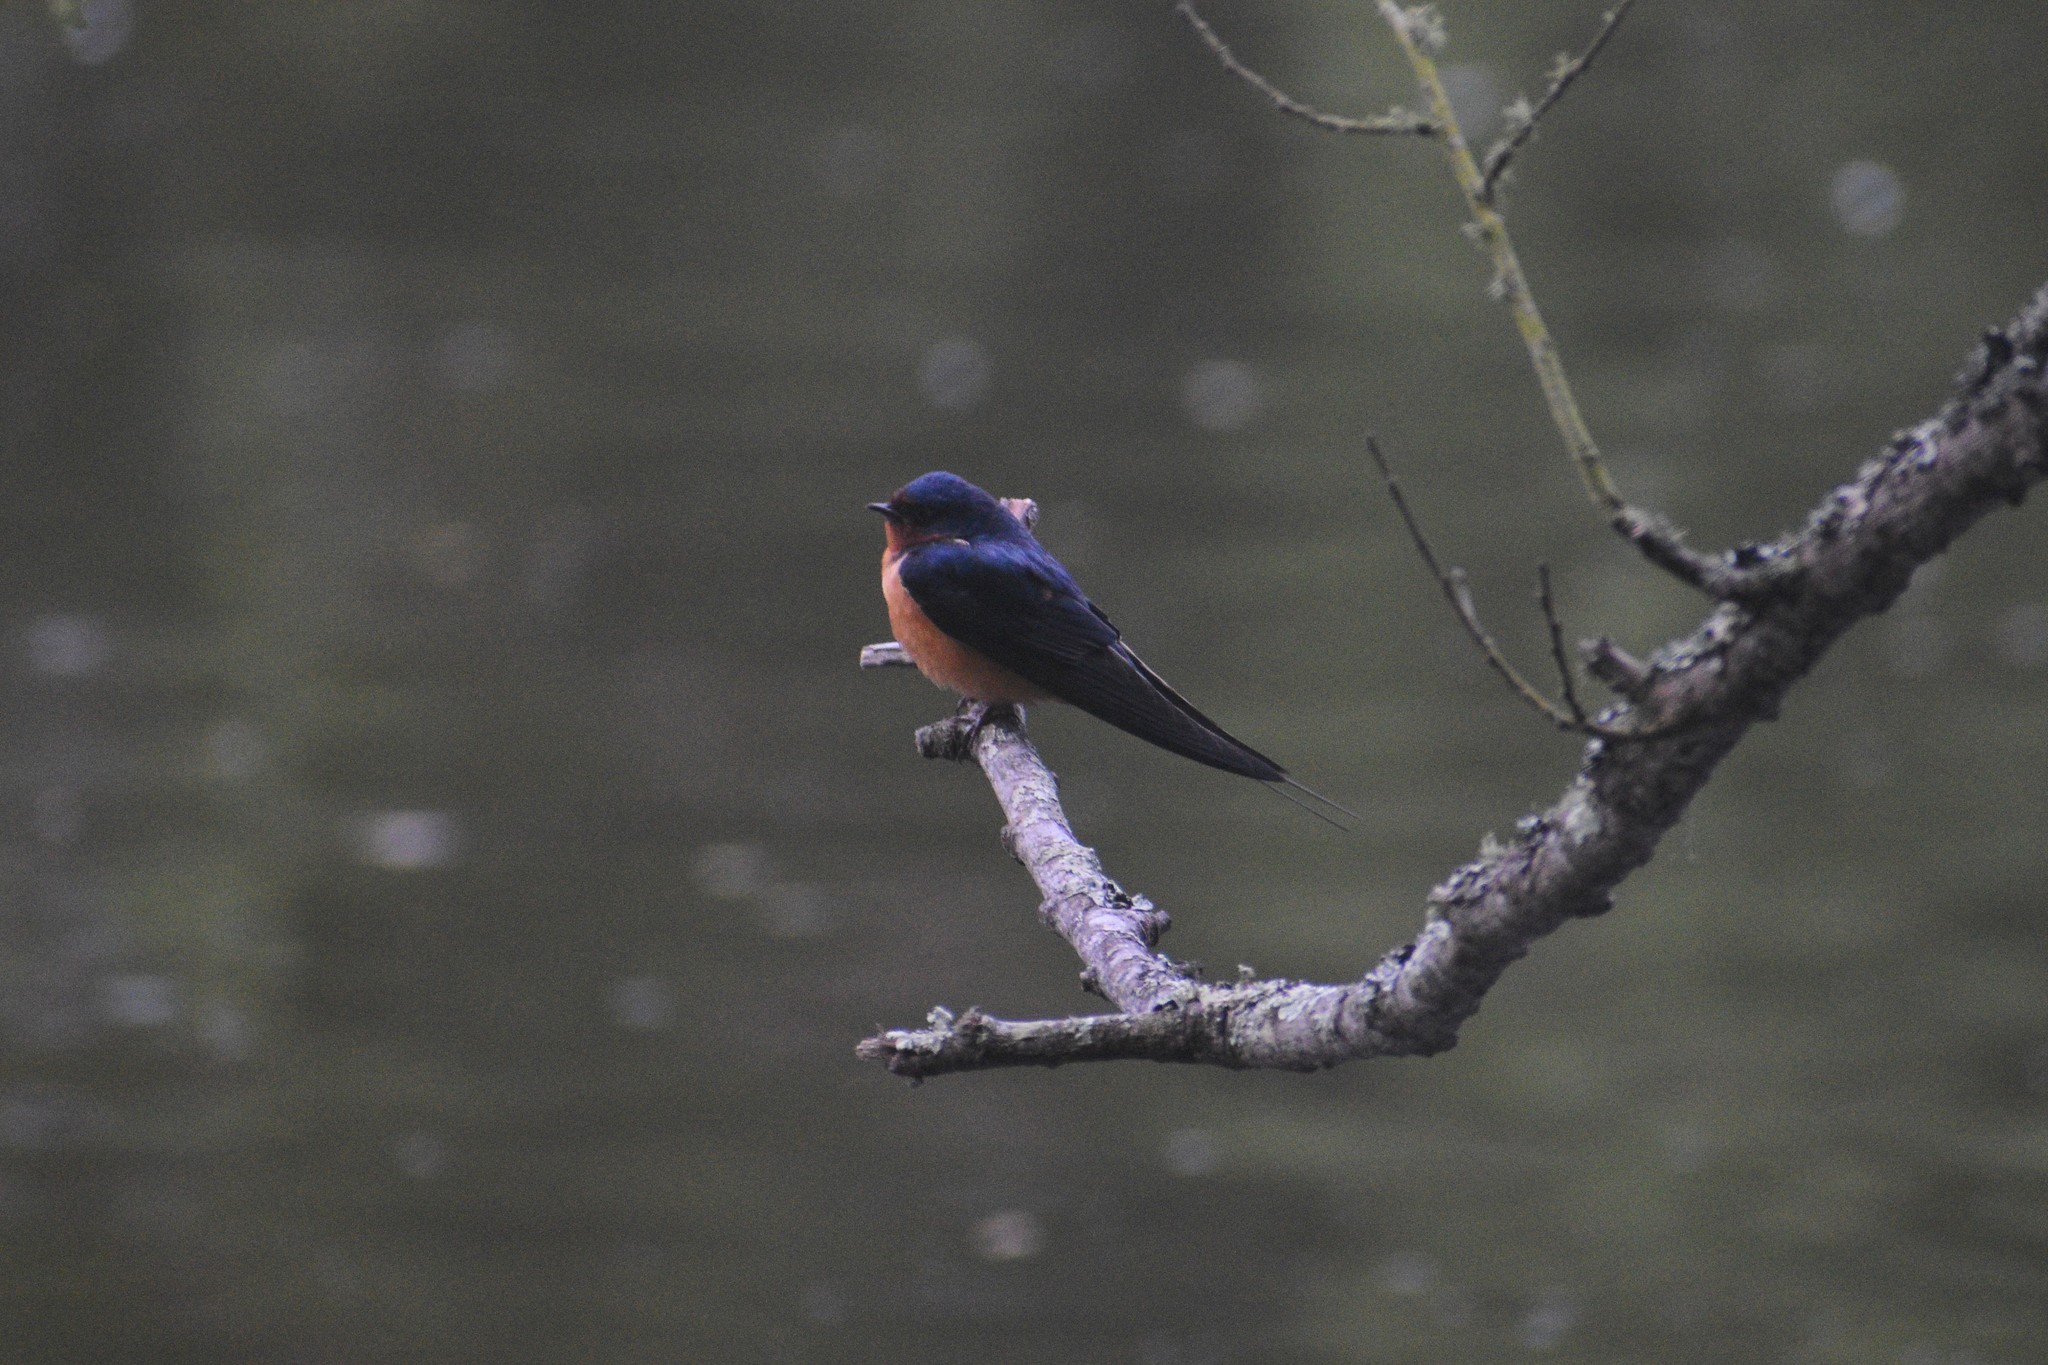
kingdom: Animalia
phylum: Chordata
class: Aves
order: Passeriformes
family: Hirundinidae
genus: Hirundo
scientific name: Hirundo rustica
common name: Barn swallow
